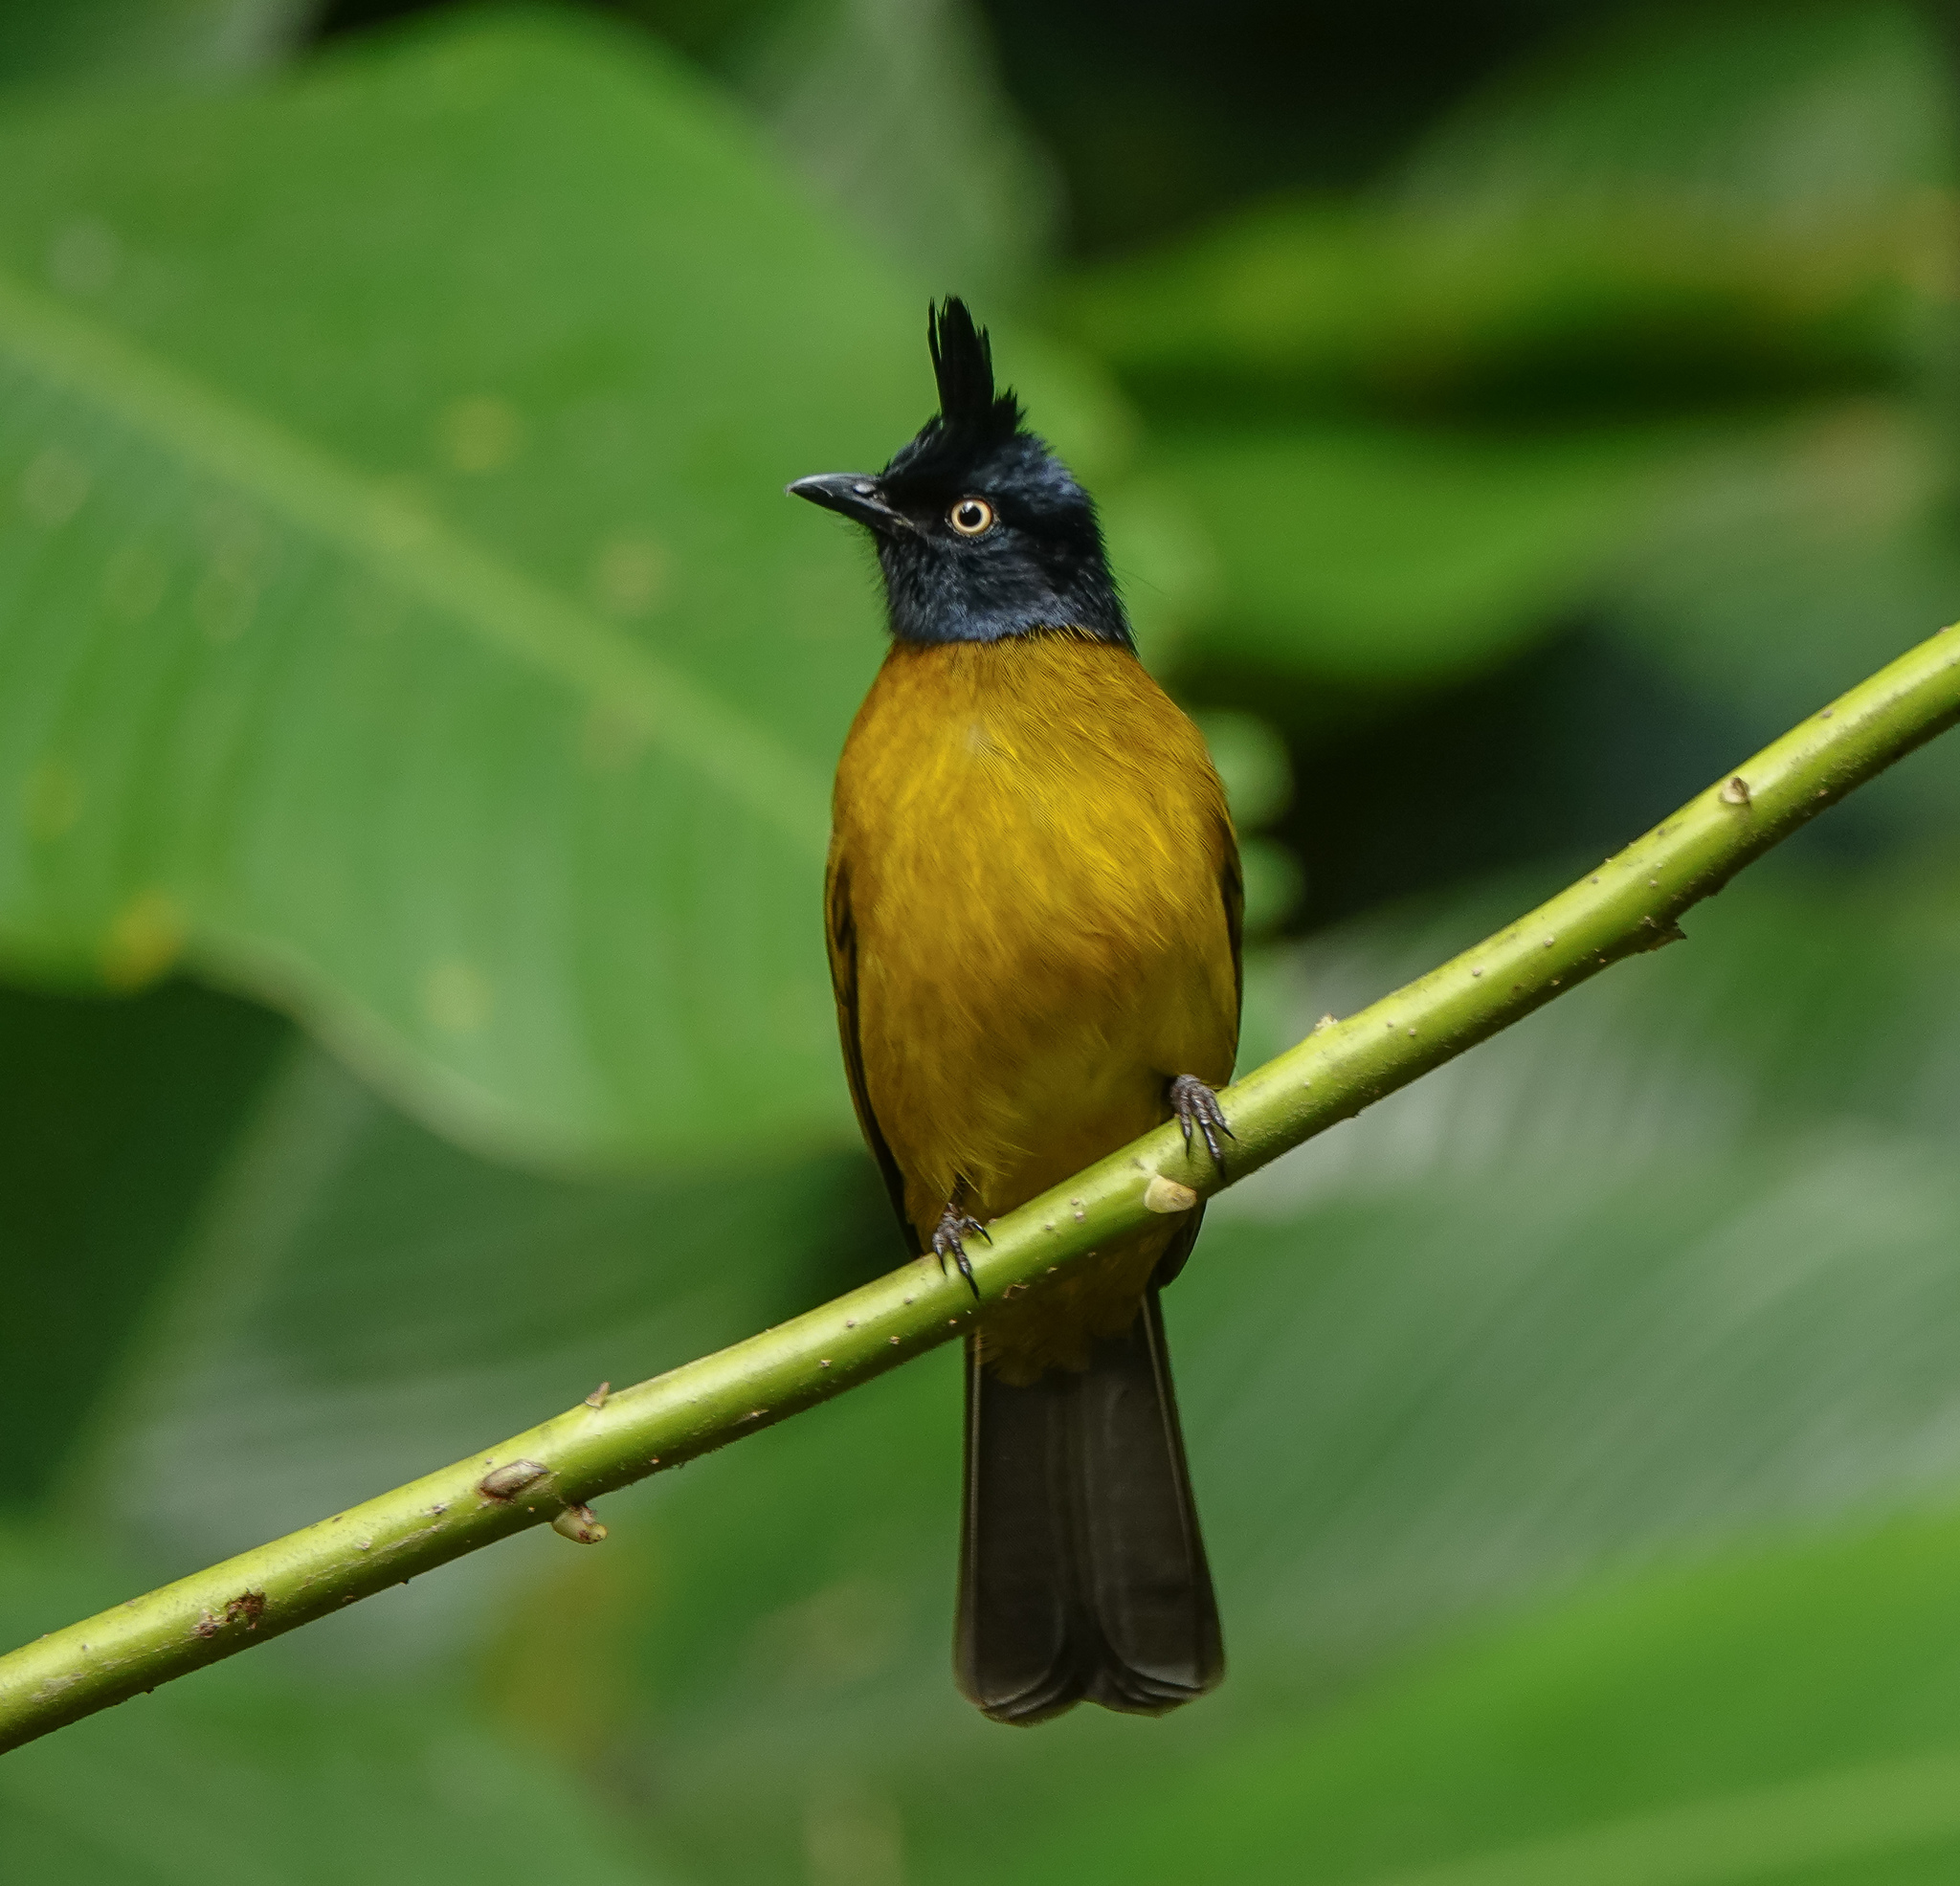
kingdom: Animalia
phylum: Chordata
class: Aves
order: Passeriformes
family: Pycnonotidae
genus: Pycnonotus
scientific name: Pycnonotus flaviventris
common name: Black-crested bulbul
